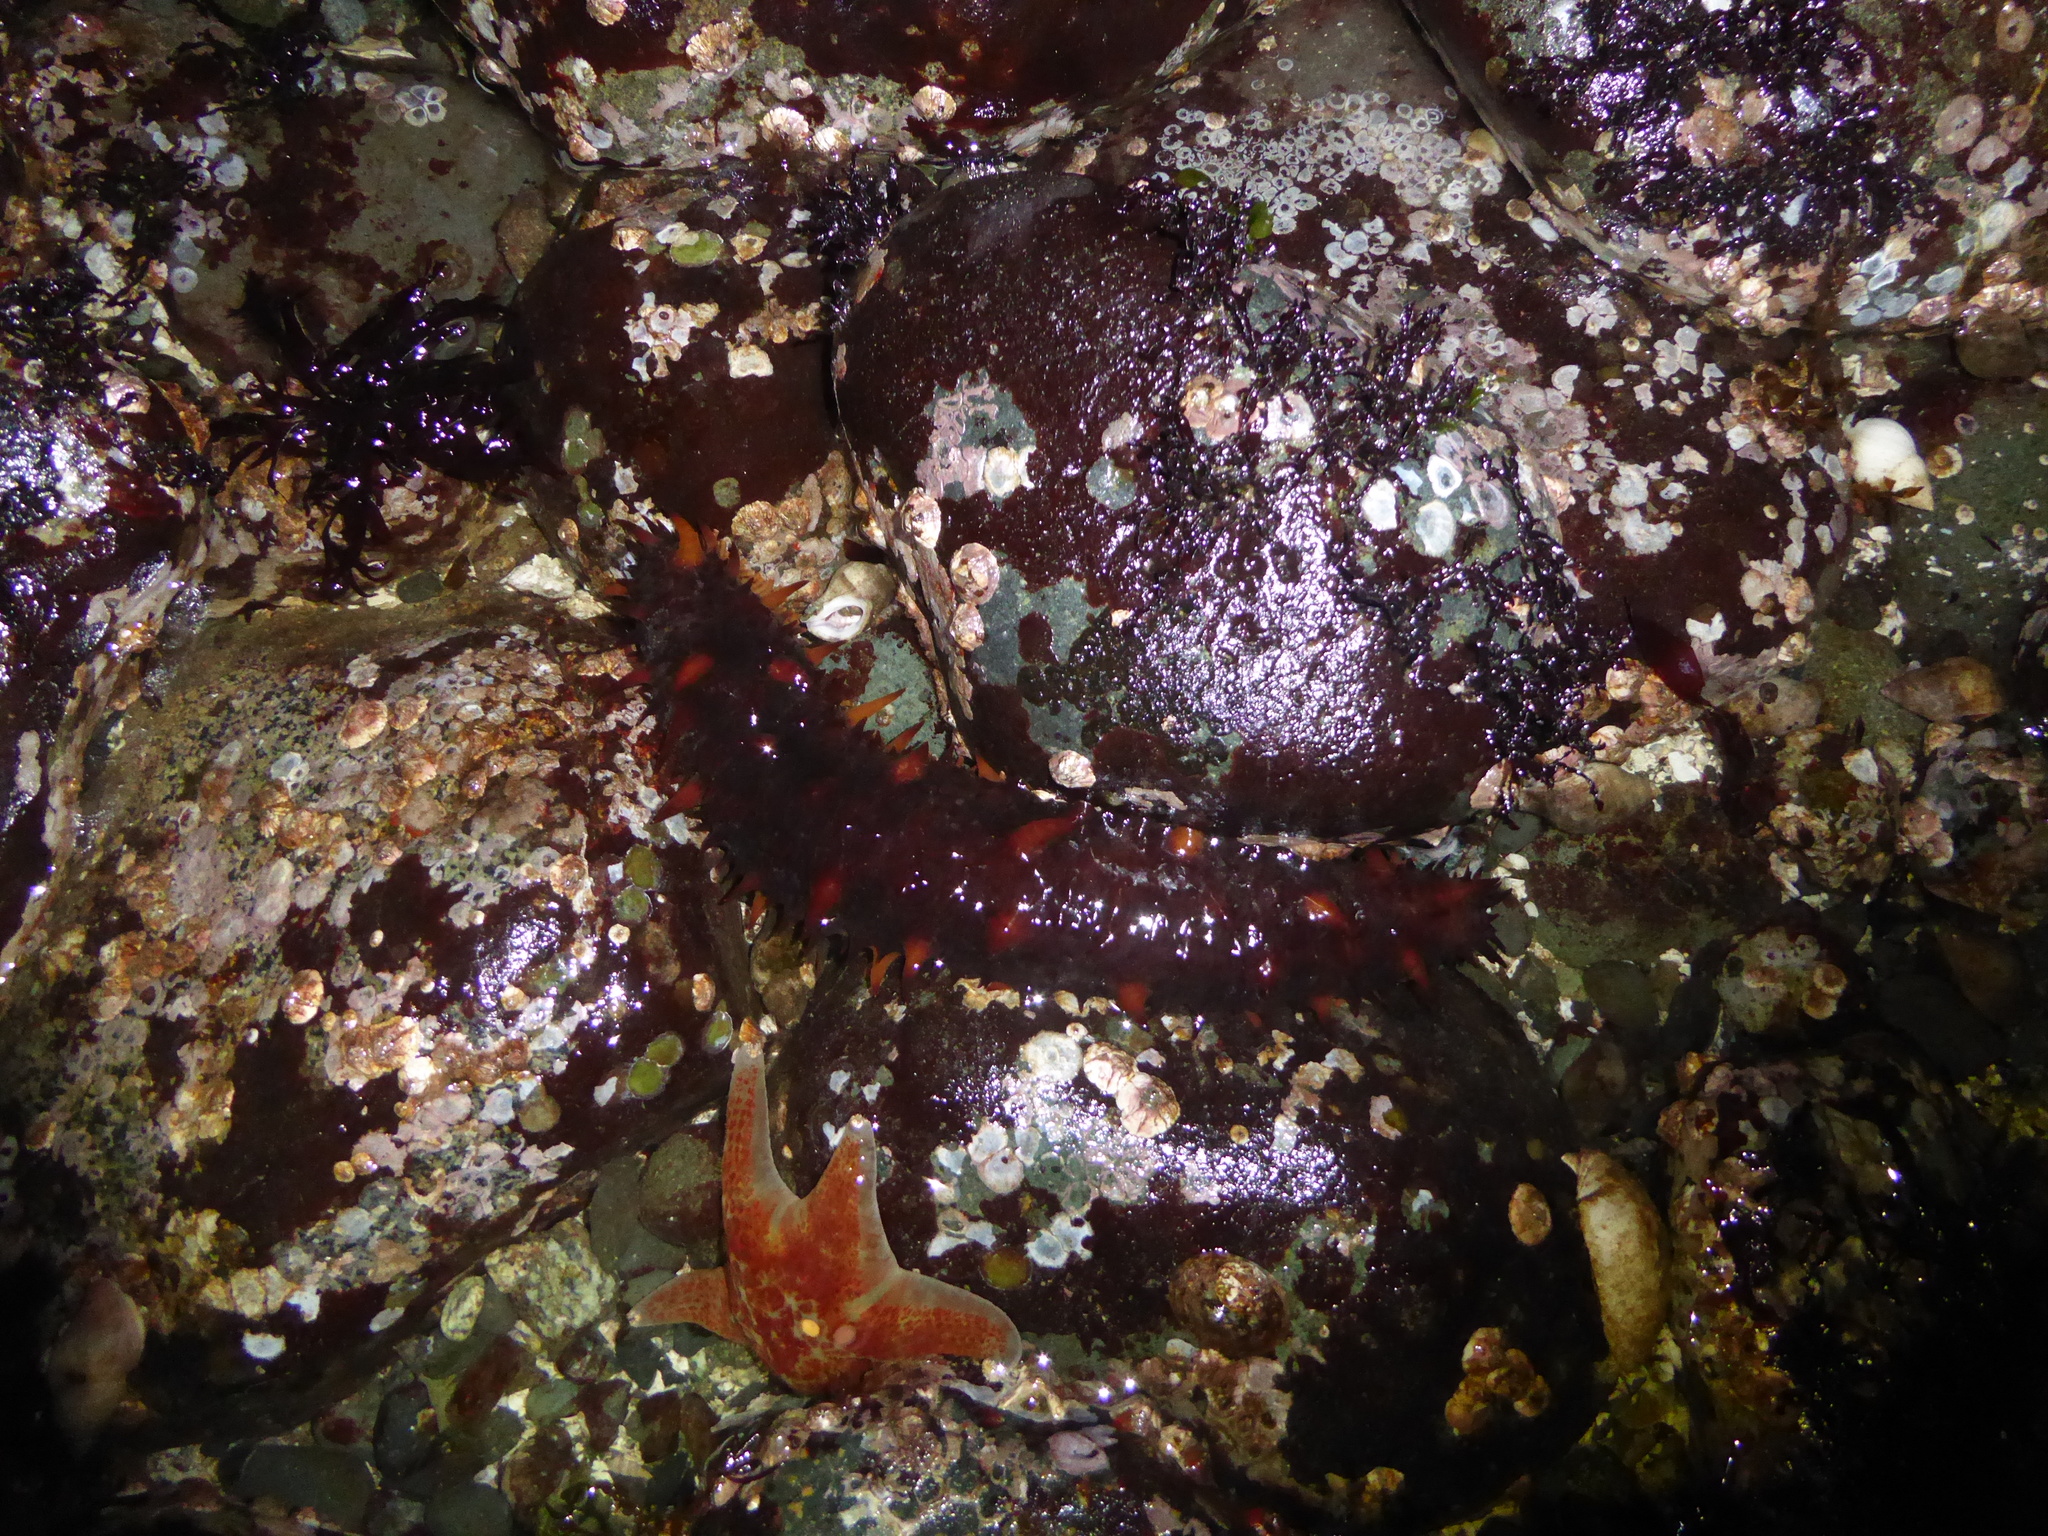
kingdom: Animalia
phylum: Echinodermata
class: Holothuroidea
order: Synallactida
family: Stichopodidae
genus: Apostichopus
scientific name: Apostichopus californicus
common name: California sea cucumber
